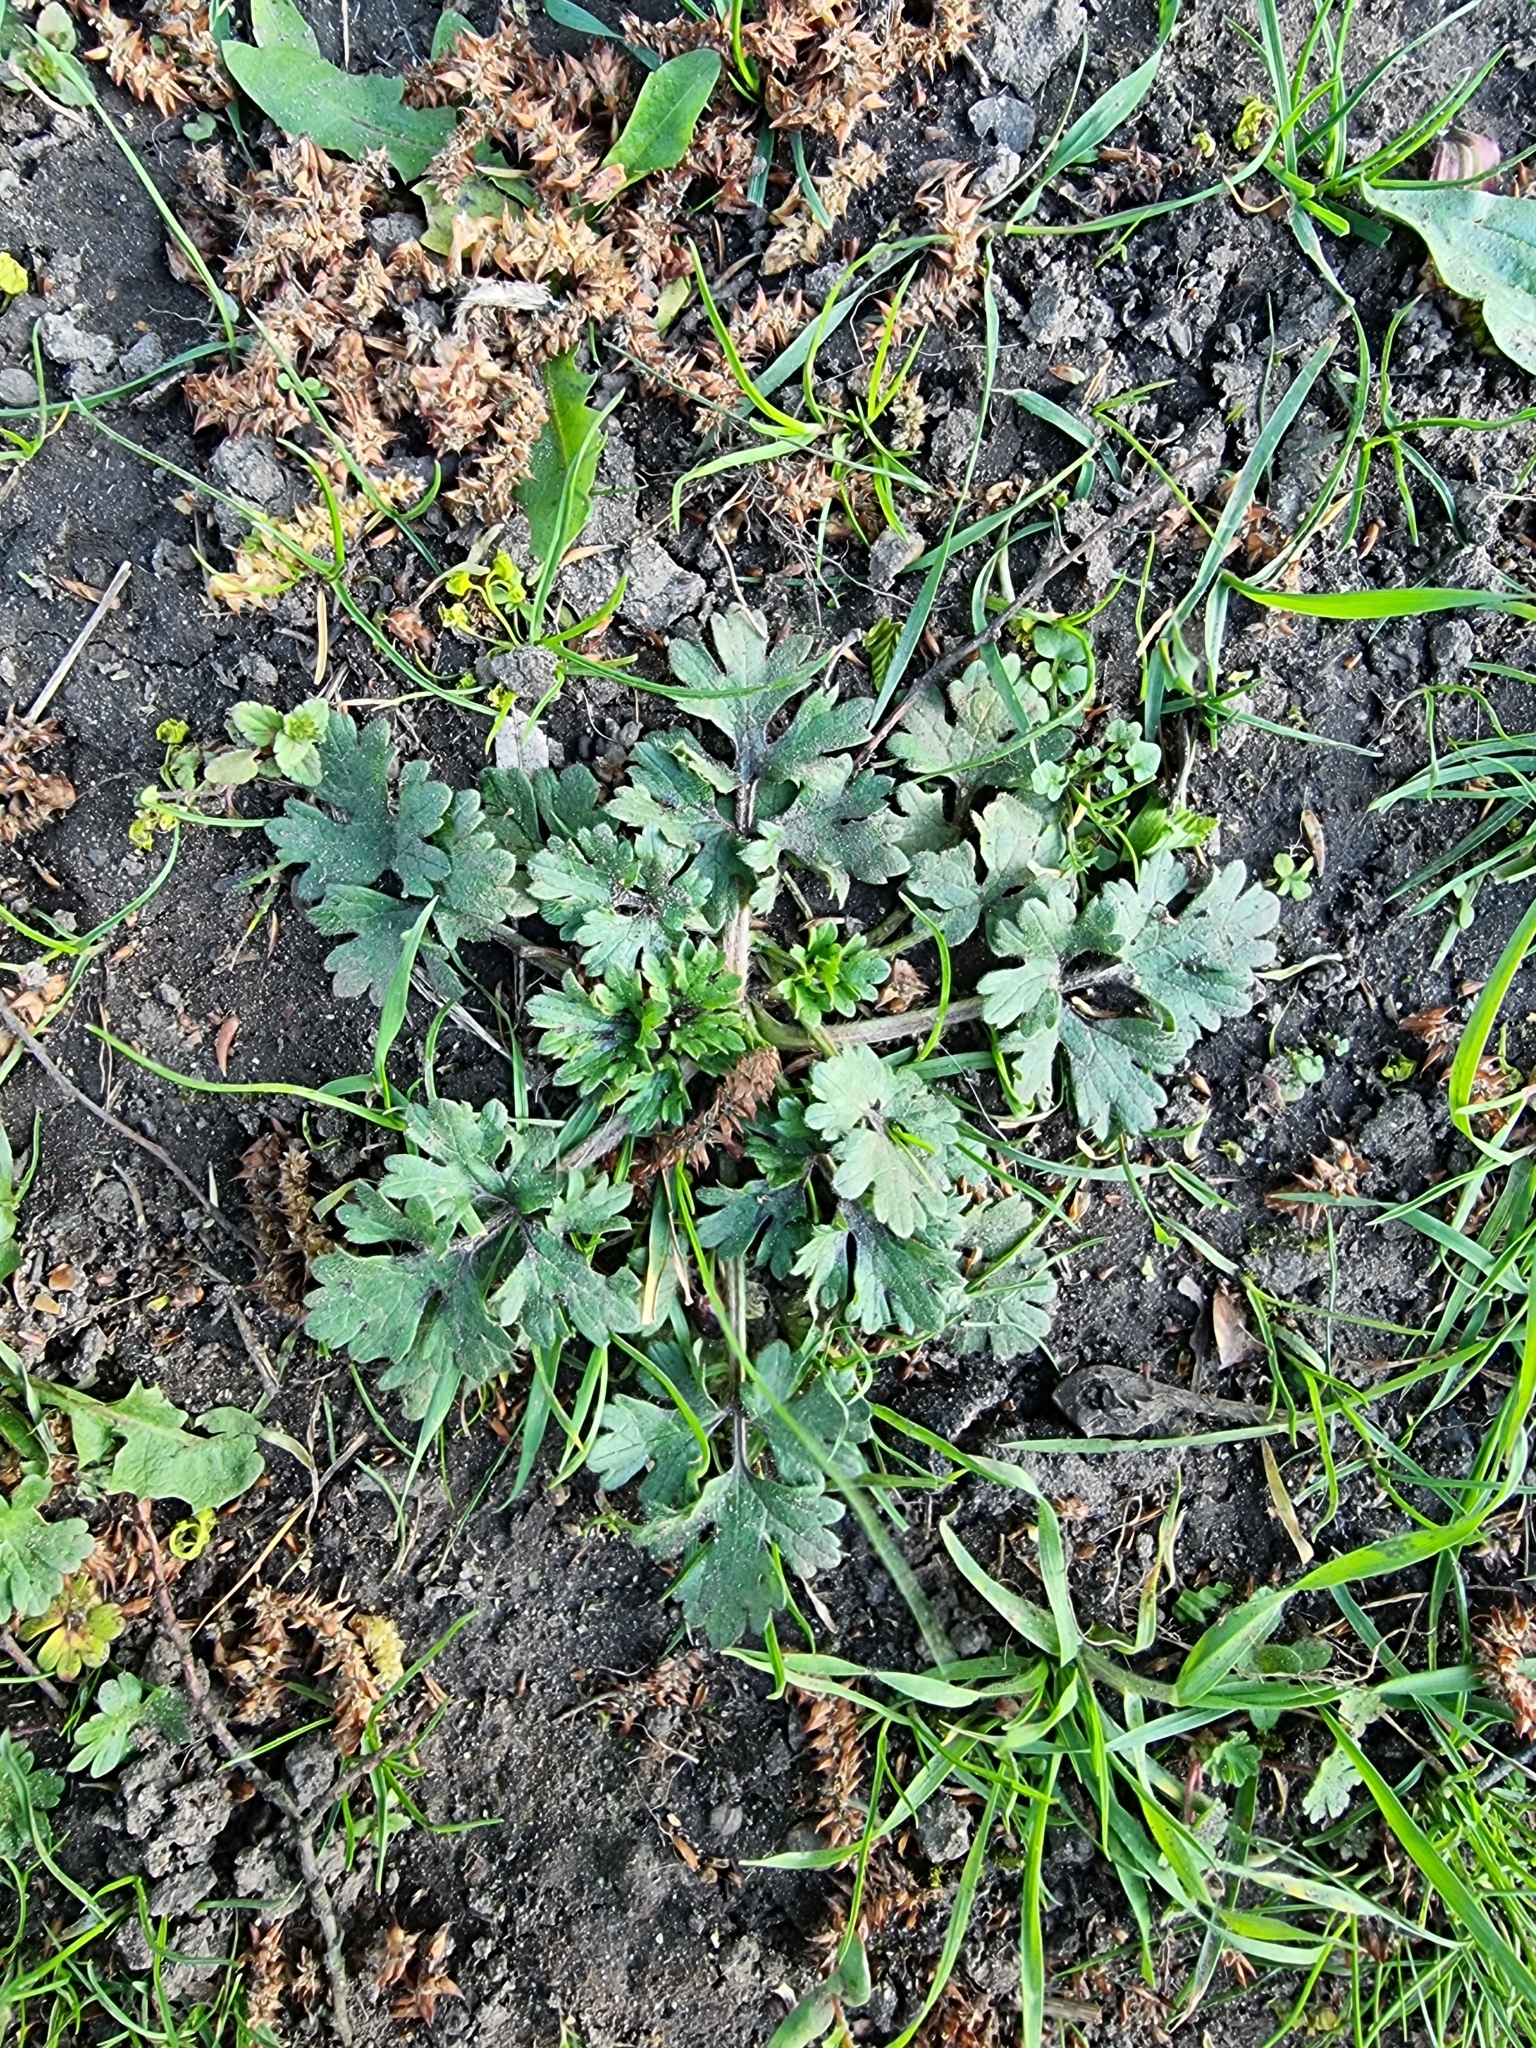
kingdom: Plantae
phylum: Tracheophyta
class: Magnoliopsida
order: Ranunculales
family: Ranunculaceae
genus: Ranunculus
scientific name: Ranunculus bulbosus
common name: Bulbous buttercup
